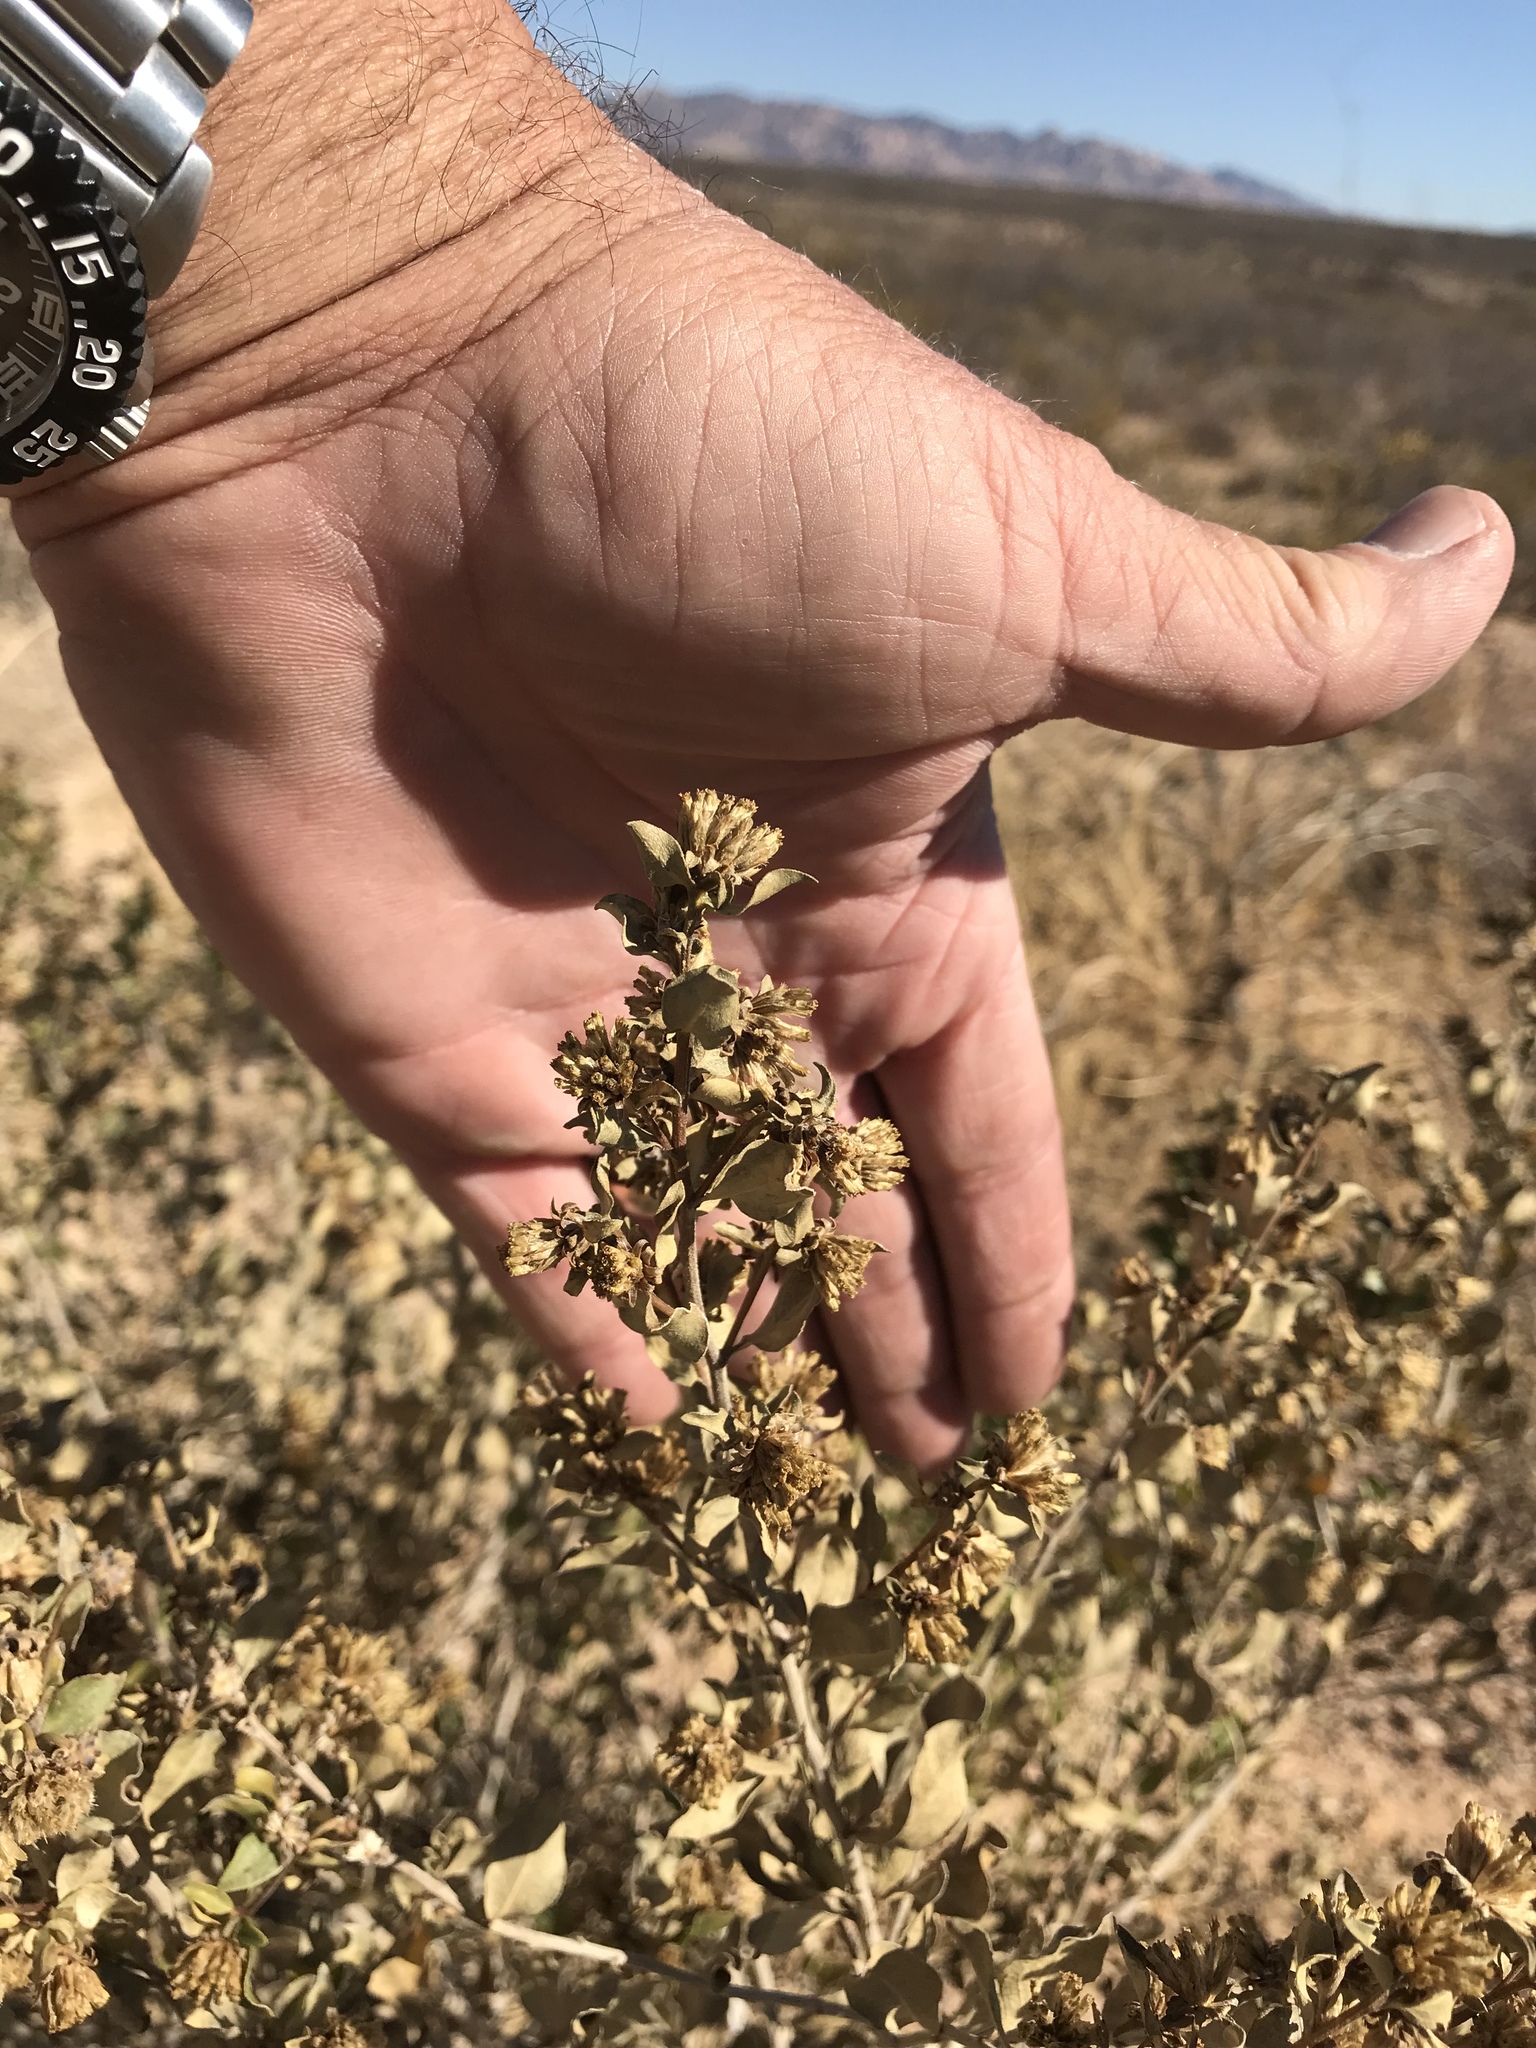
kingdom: Plantae
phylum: Tracheophyta
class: Magnoliopsida
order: Asterales
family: Asteraceae
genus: Flourensia
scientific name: Flourensia cernua
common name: Varnishbush
